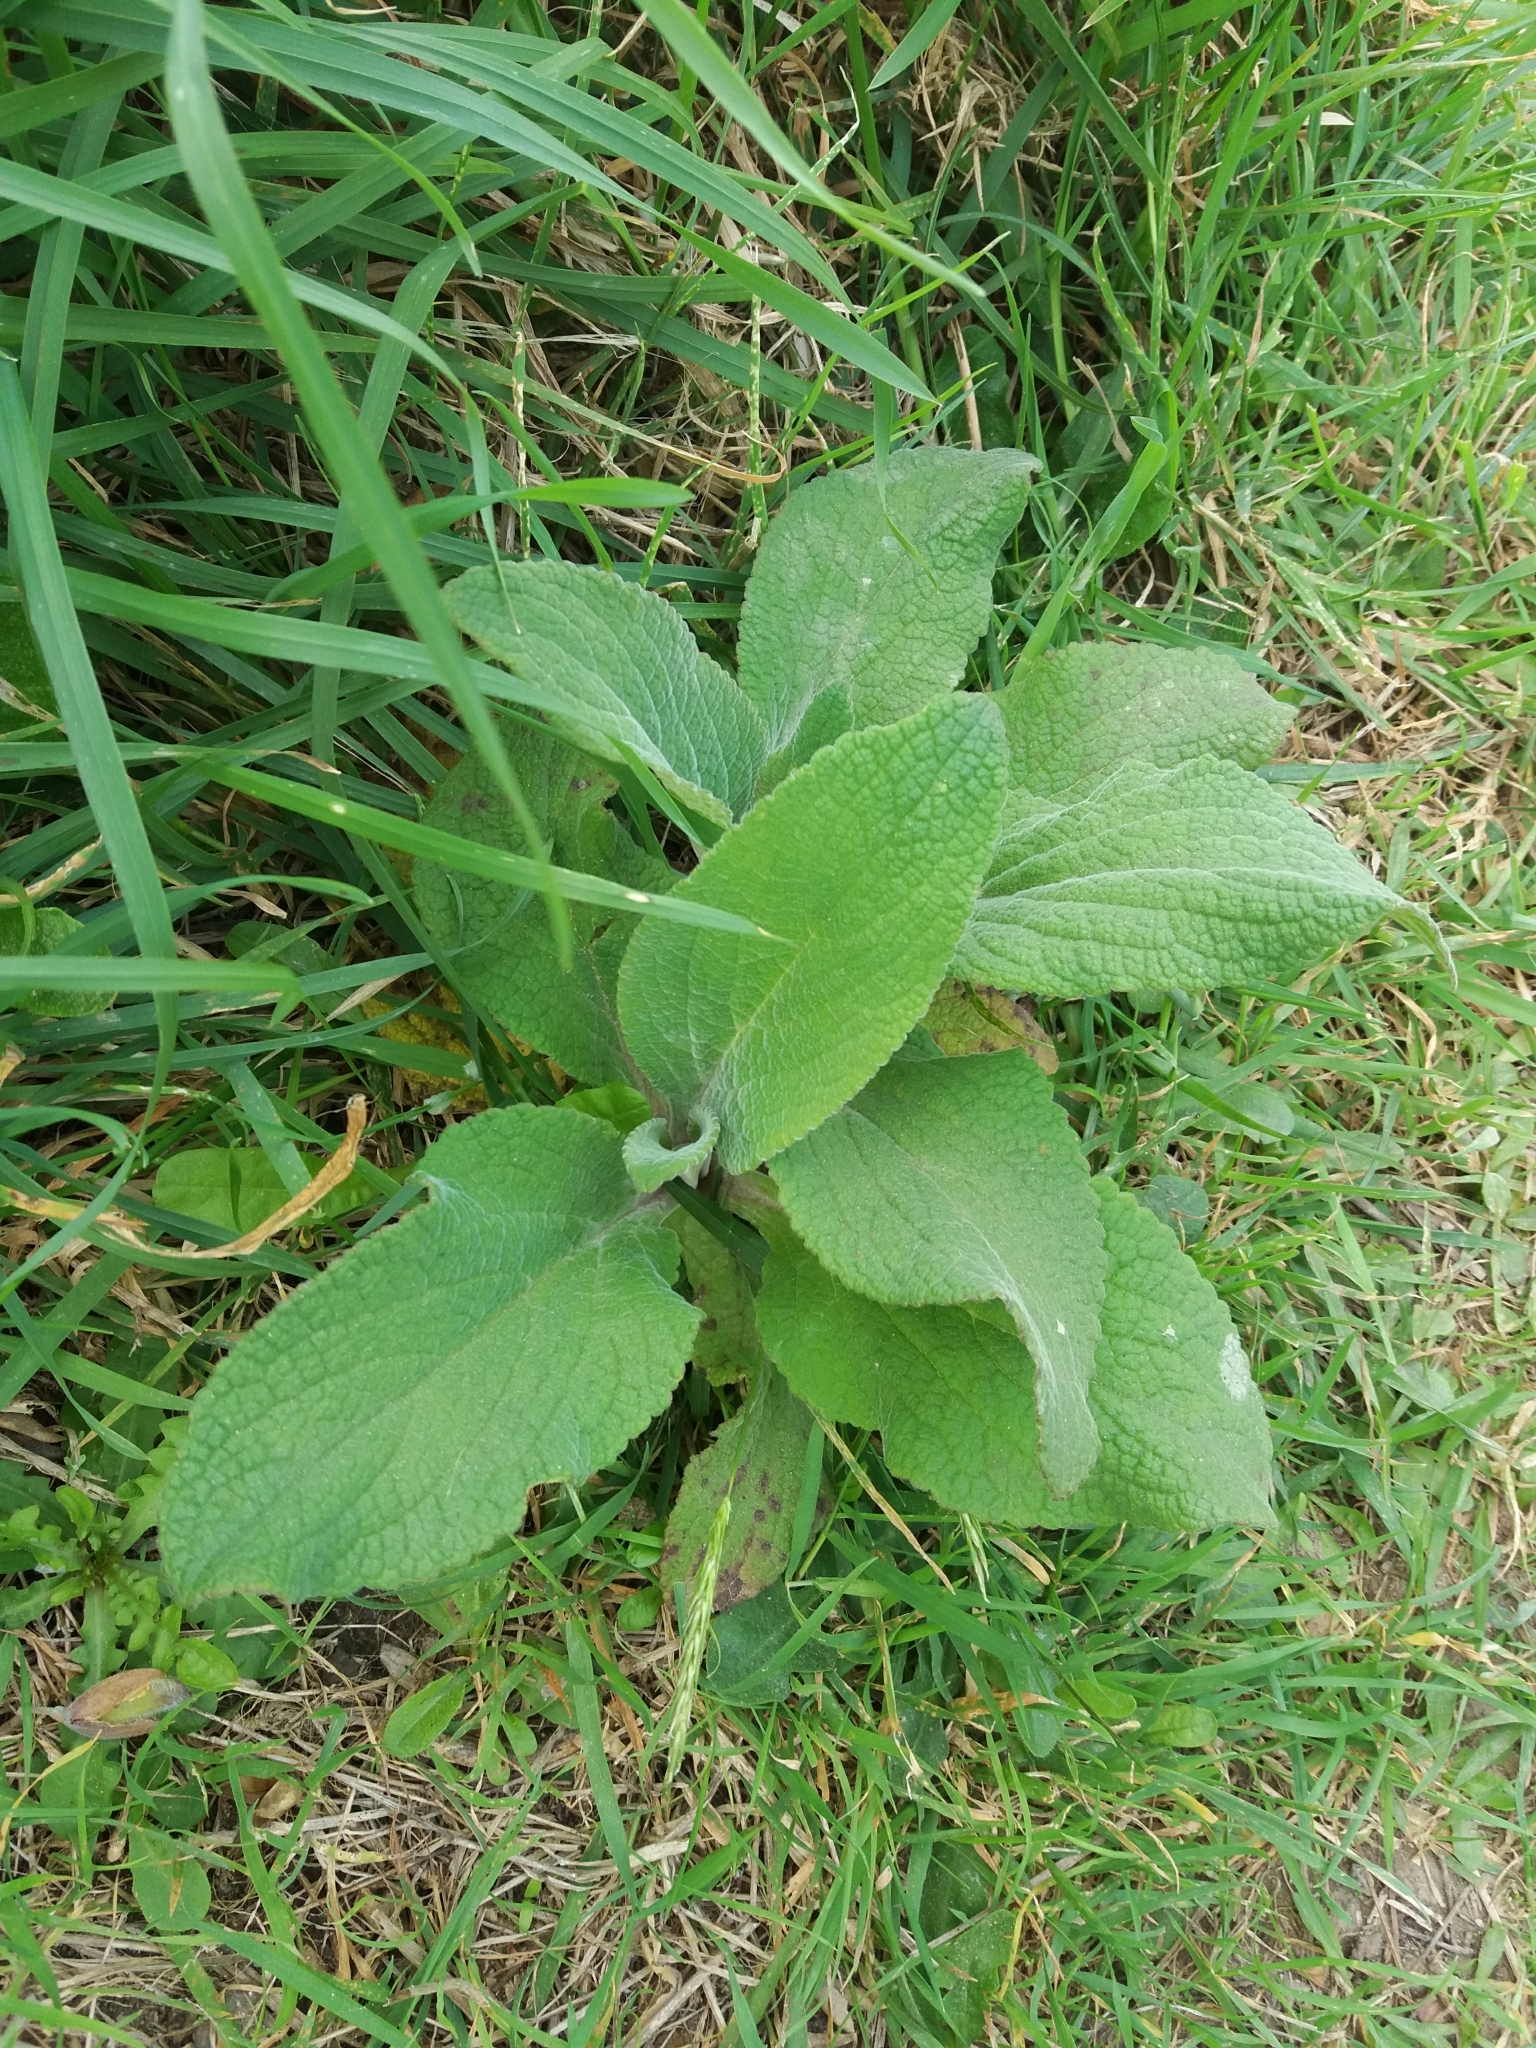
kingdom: Plantae
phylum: Tracheophyta
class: Magnoliopsida
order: Lamiales
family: Plantaginaceae
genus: Digitalis
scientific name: Digitalis purpurea
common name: Foxglove
